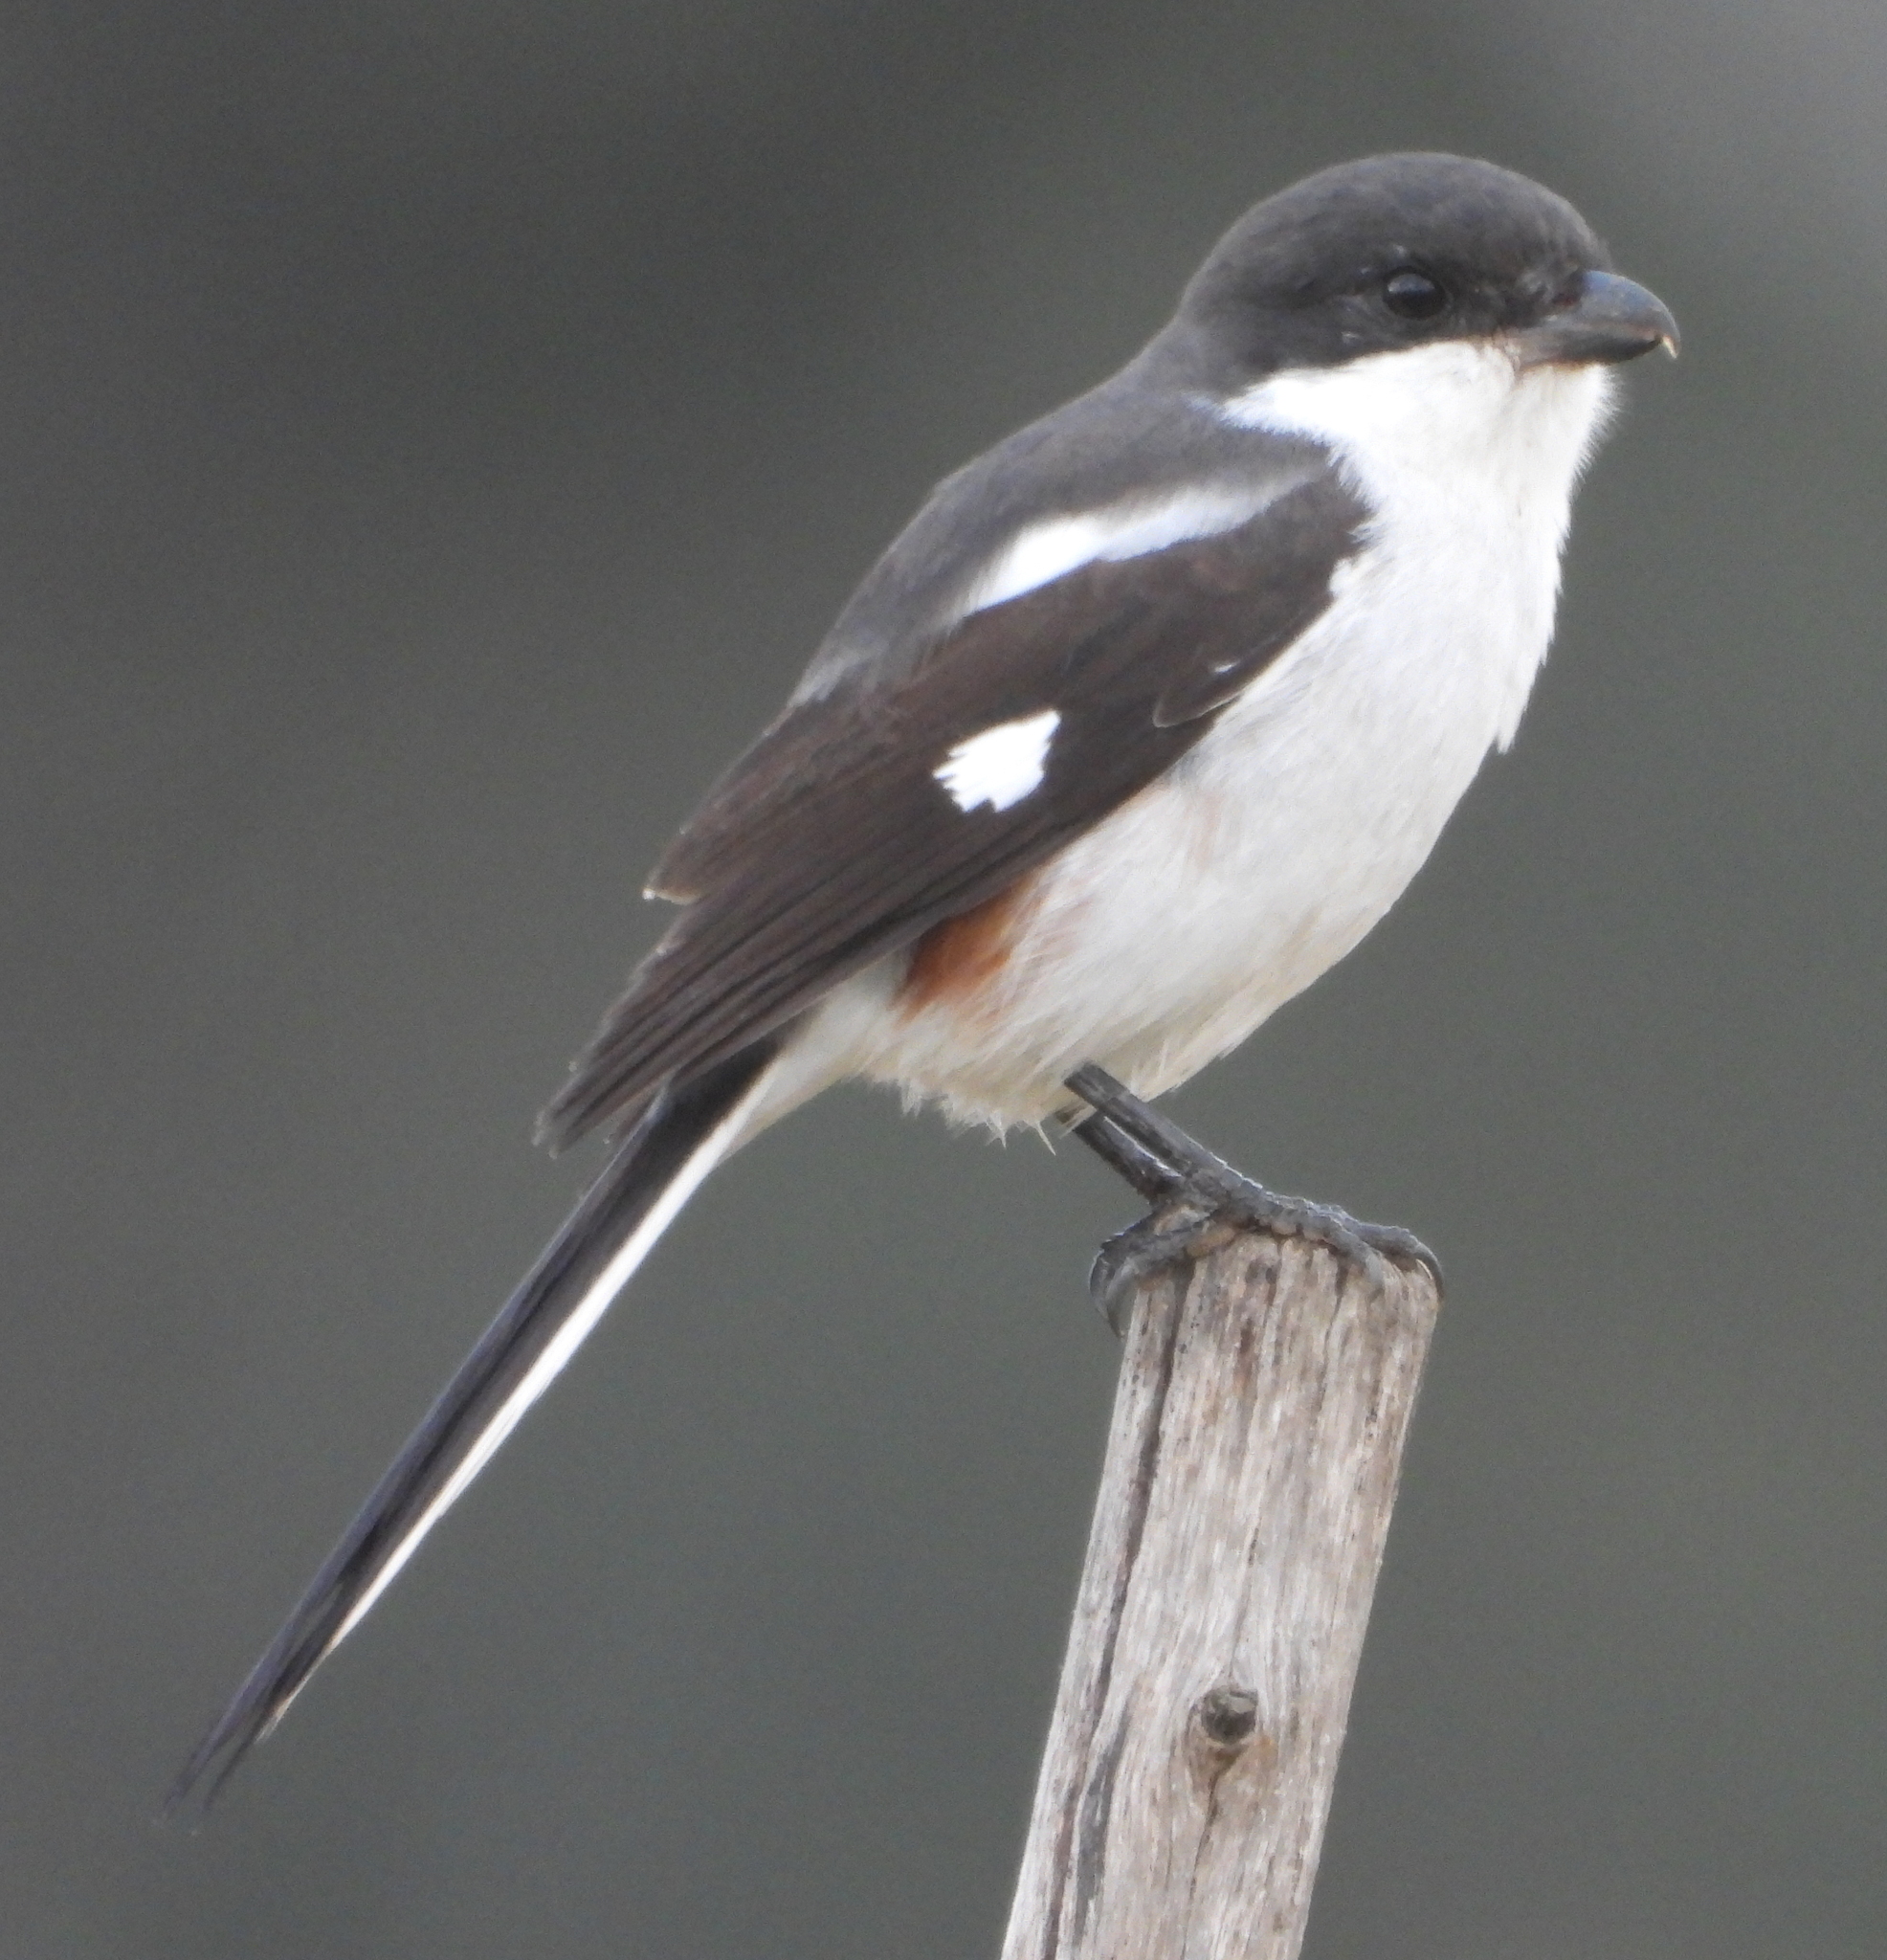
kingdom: Animalia
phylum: Chordata
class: Aves
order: Passeriformes
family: Laniidae
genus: Lanius
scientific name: Lanius collaris
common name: Southern fiscal
